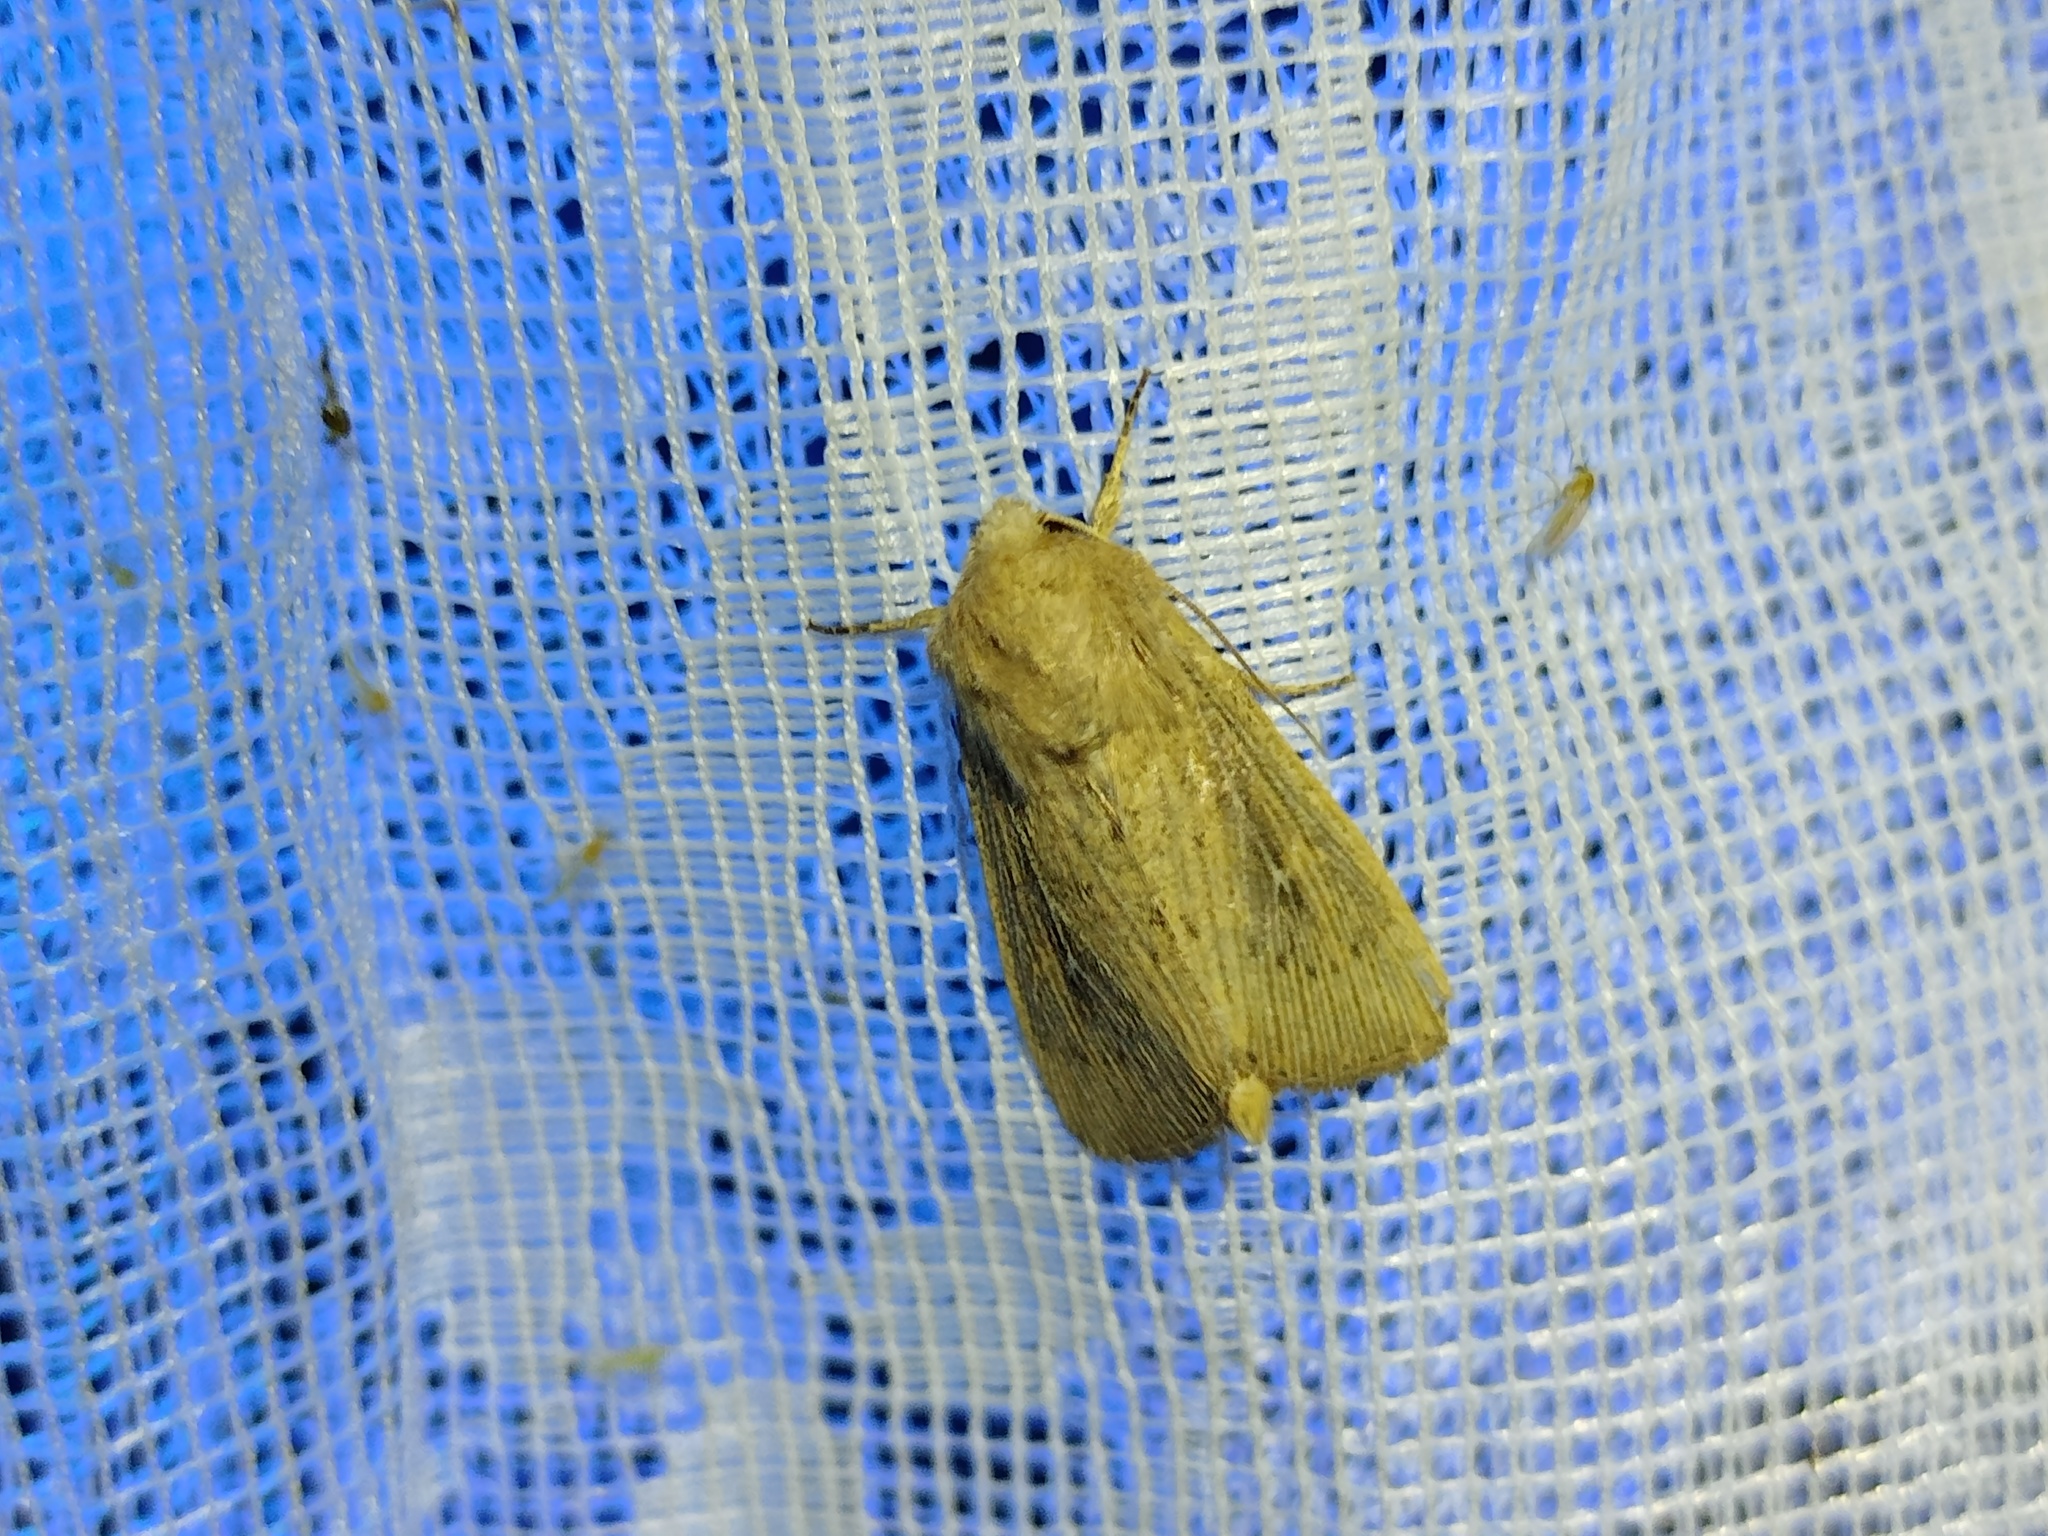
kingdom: Animalia
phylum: Arthropoda
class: Insecta
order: Lepidoptera
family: Noctuidae
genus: Leucania
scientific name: Leucania obsoleta
